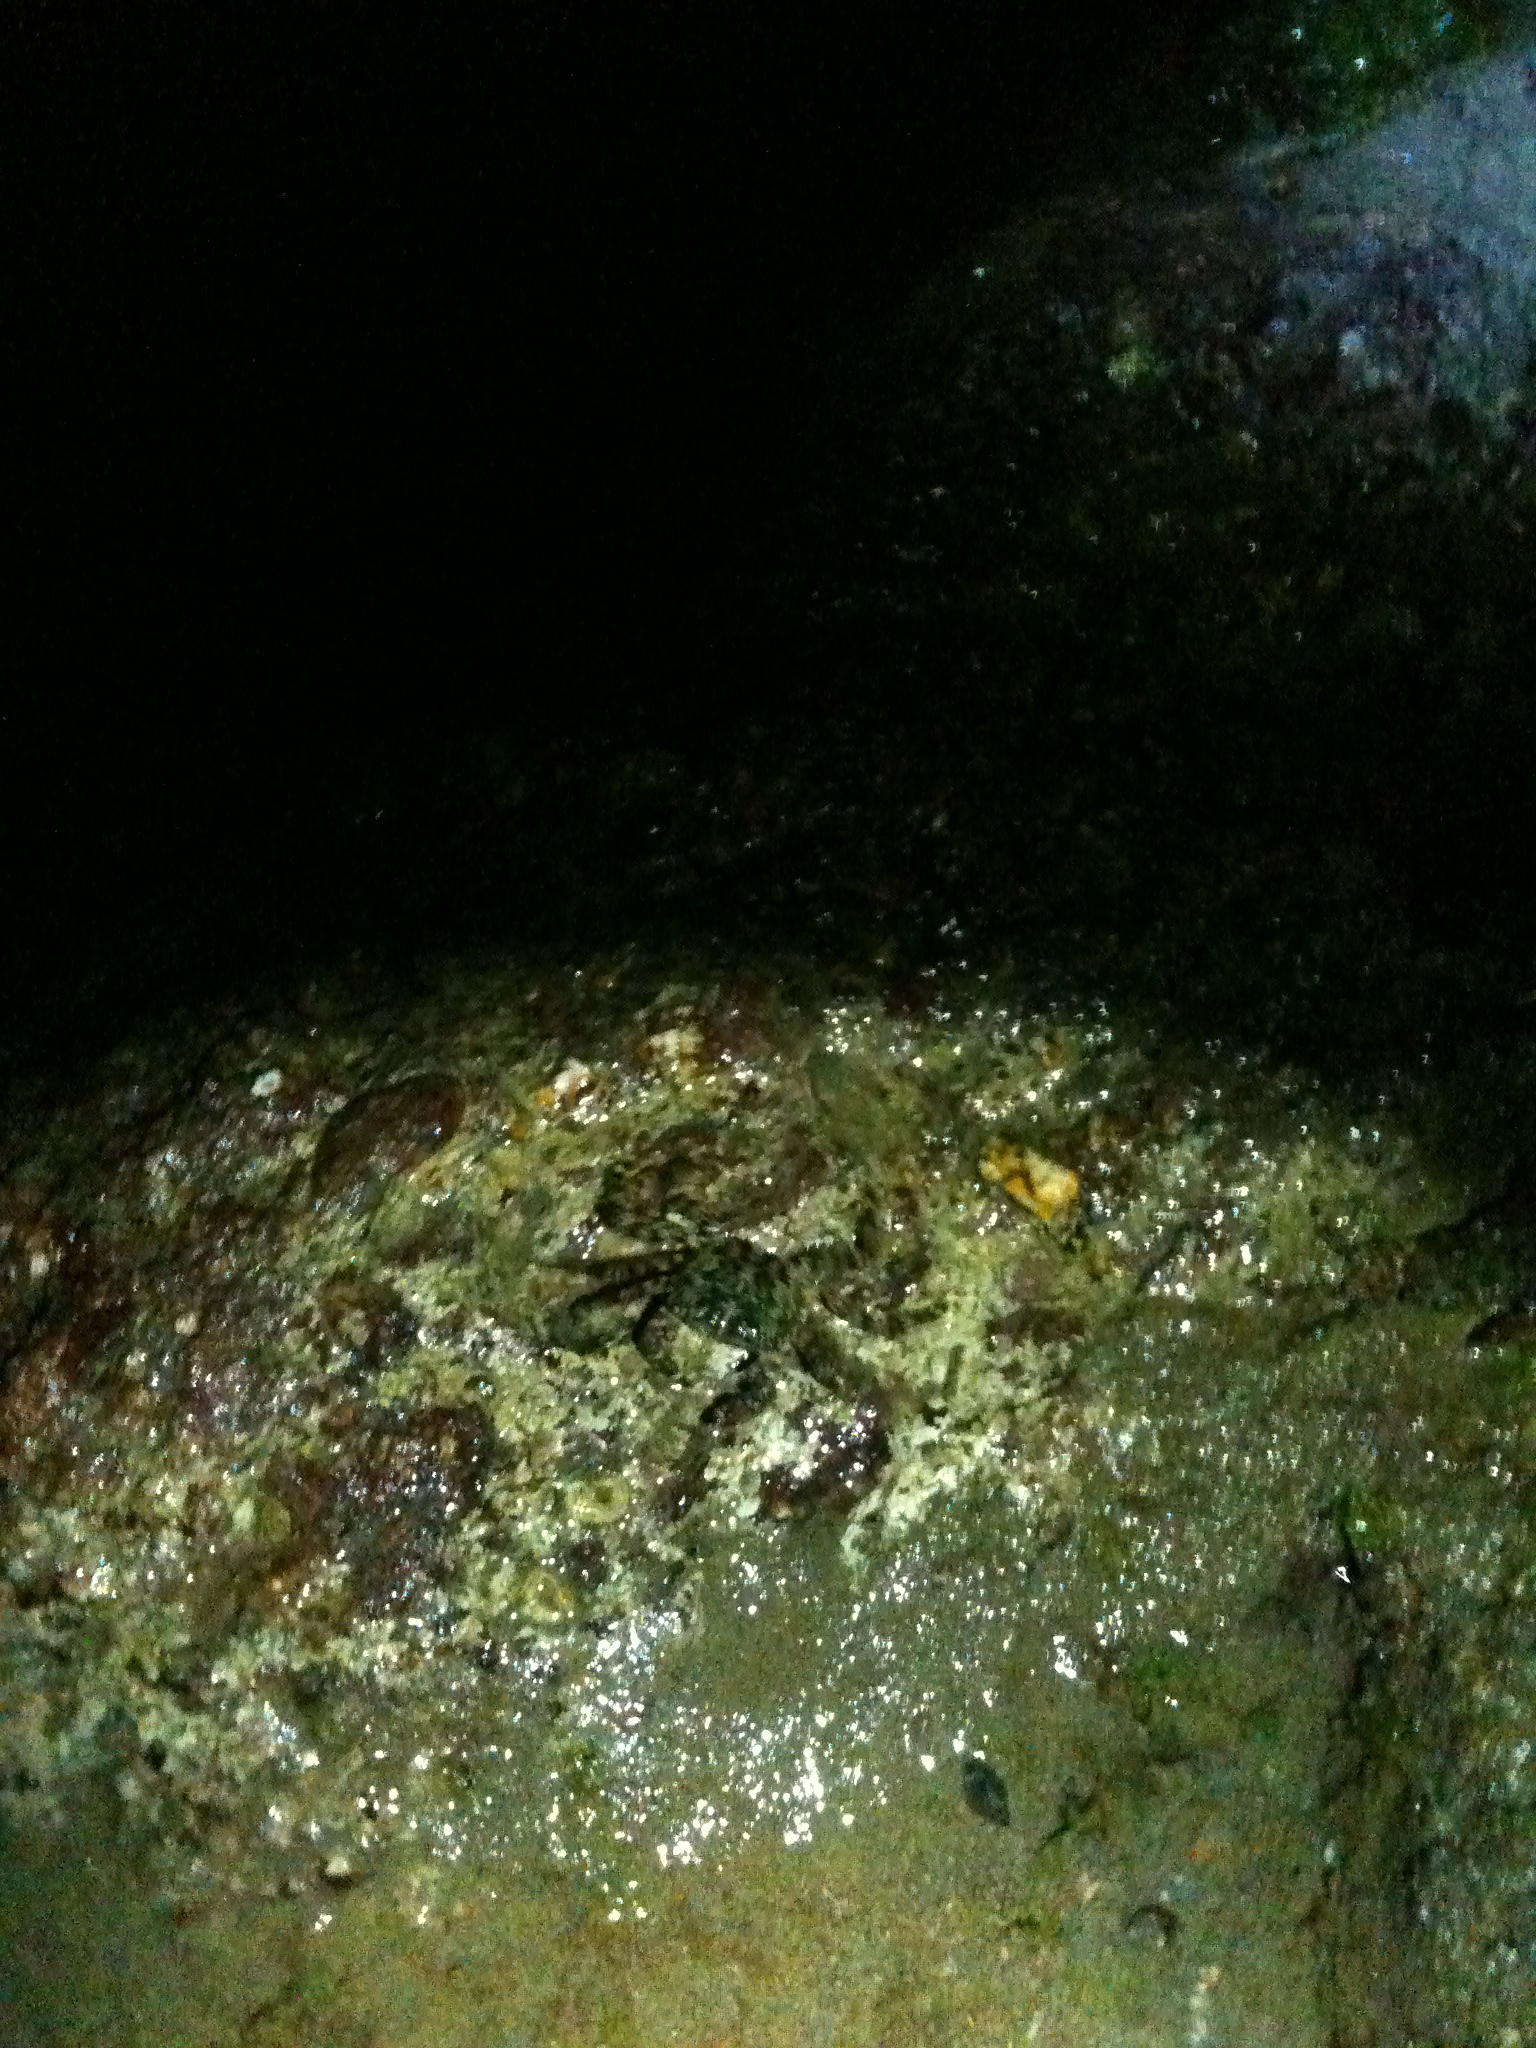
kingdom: Animalia
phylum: Arthropoda
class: Malacostraca
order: Decapoda
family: Grapsidae
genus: Pachygrapsus
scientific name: Pachygrapsus marmoratus
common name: Marbled rock crab
